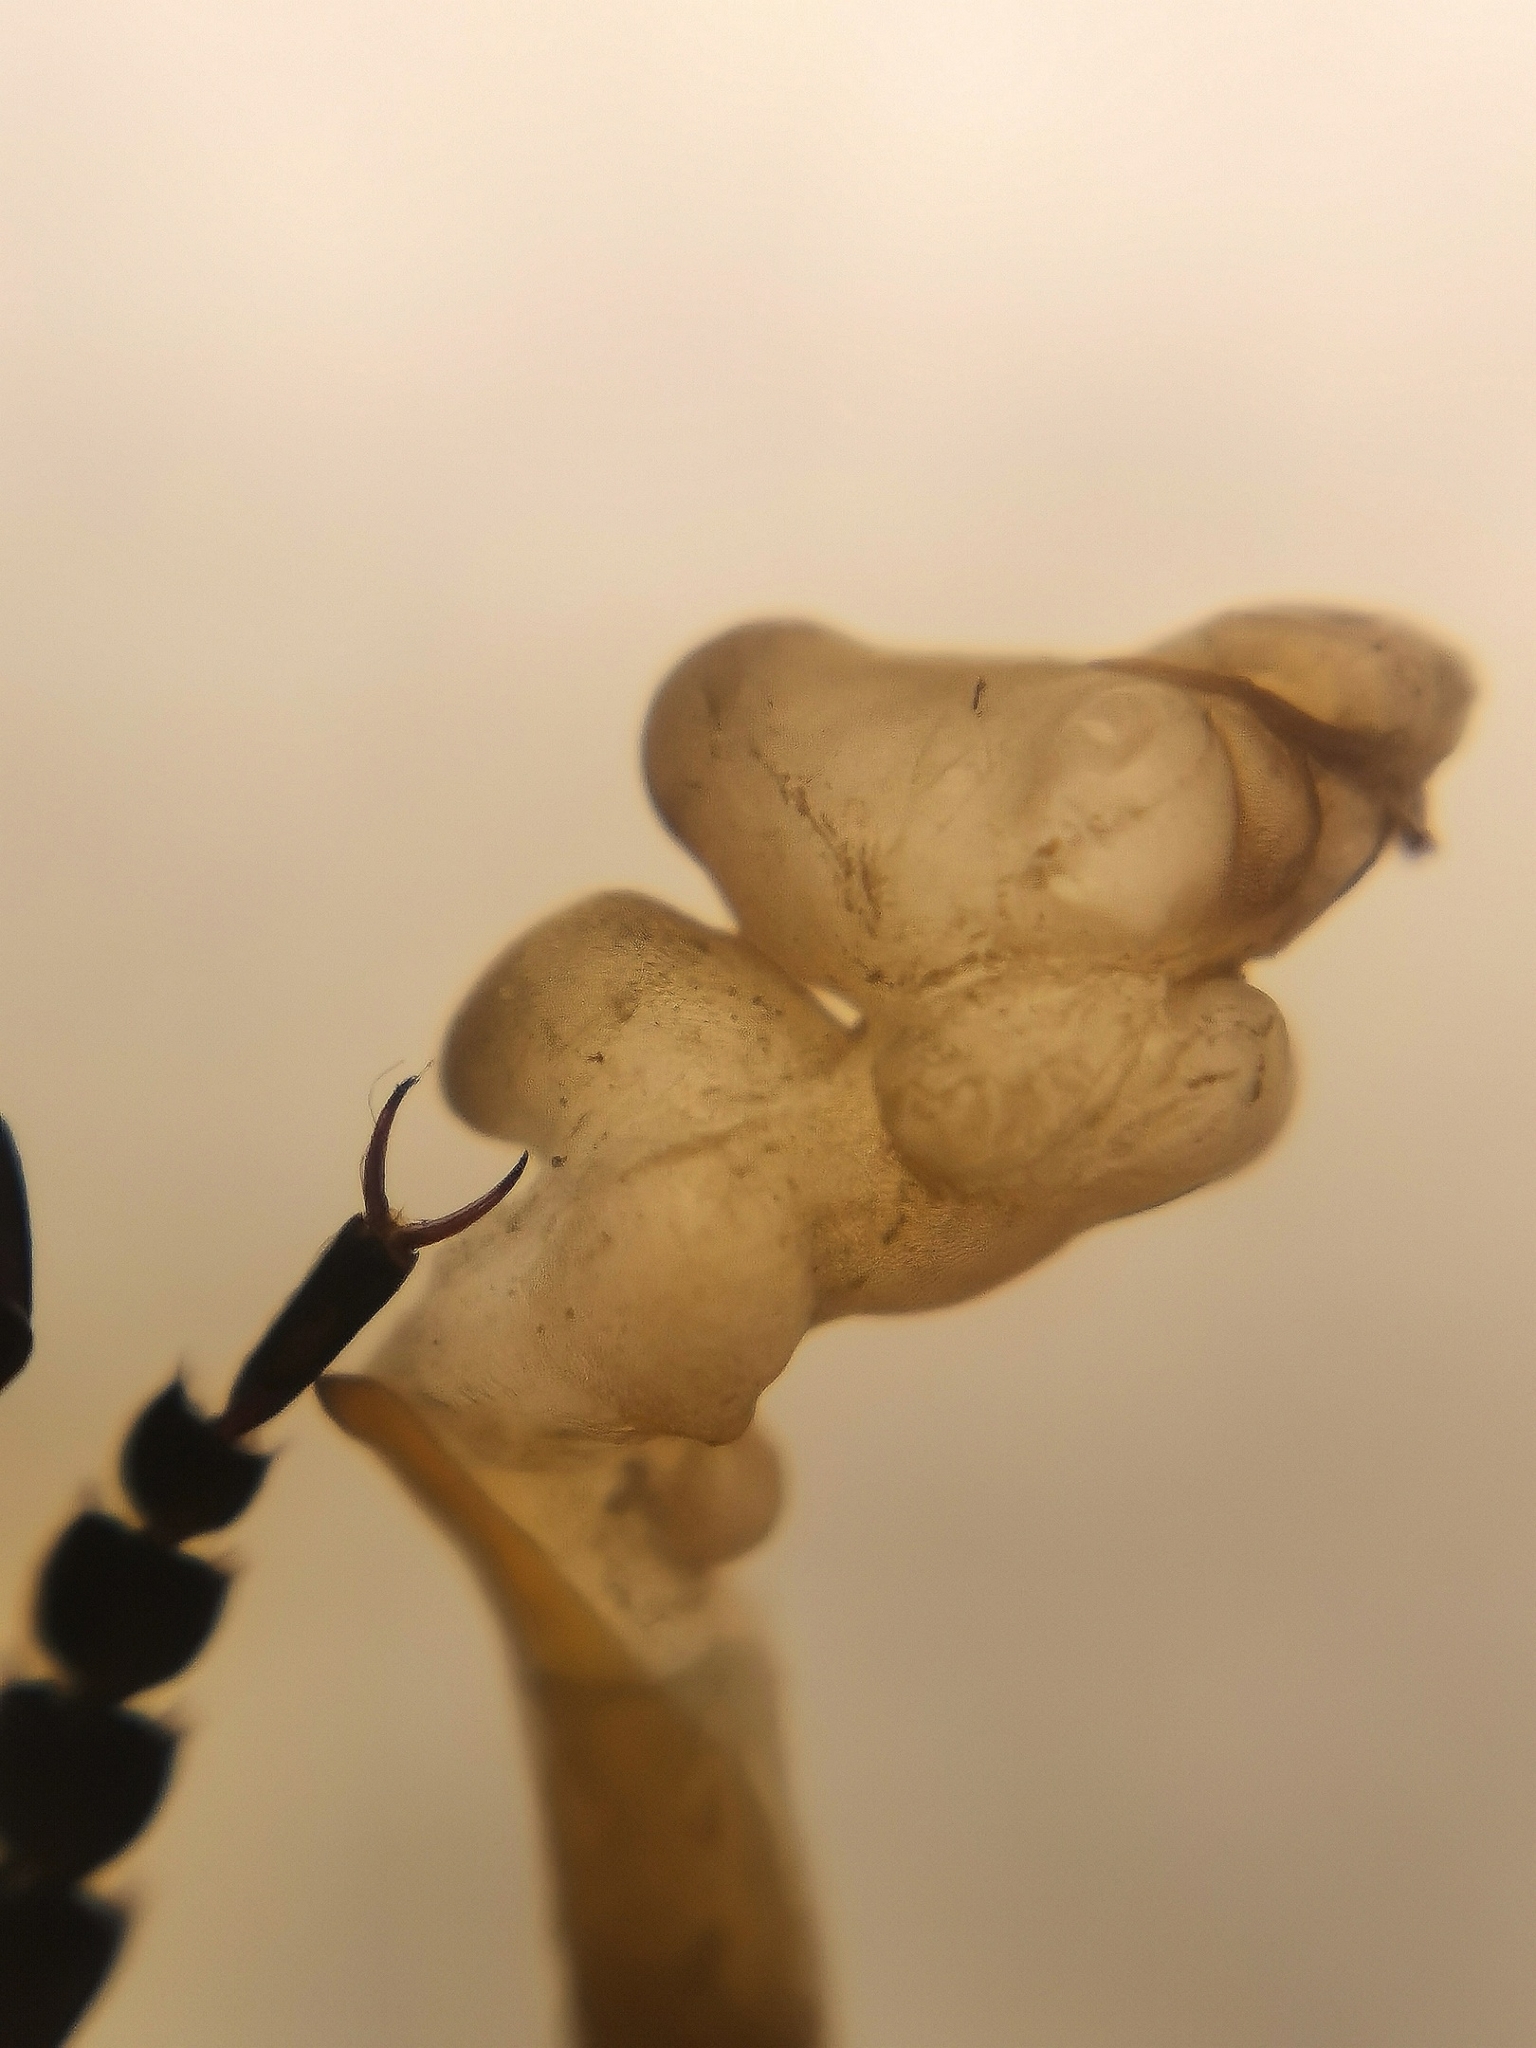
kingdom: Animalia
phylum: Arthropoda
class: Insecta
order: Coleoptera
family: Carabidae
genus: Carabus
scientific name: Carabus spasskianus
